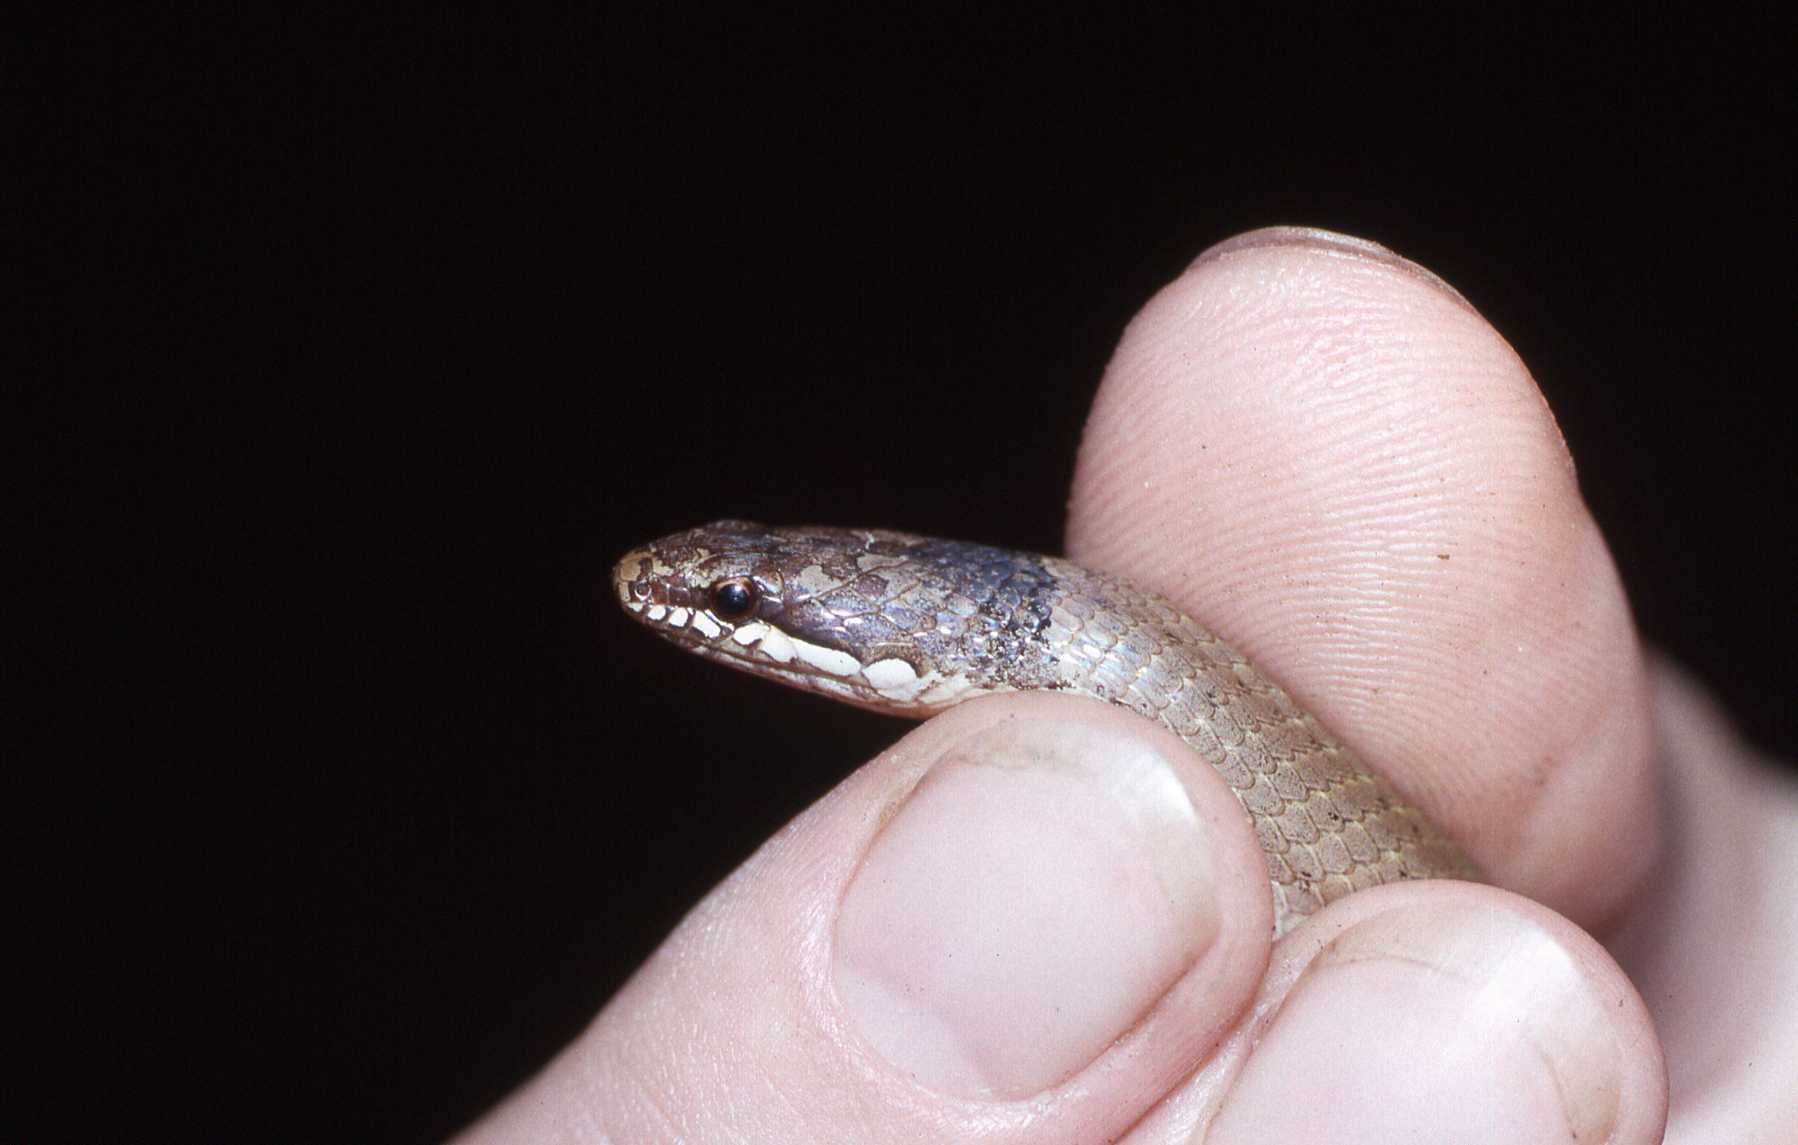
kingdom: Animalia
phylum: Chordata
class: Squamata
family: Pseudoxyrhophiidae
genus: Liophidium
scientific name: Liophidium torquatum
